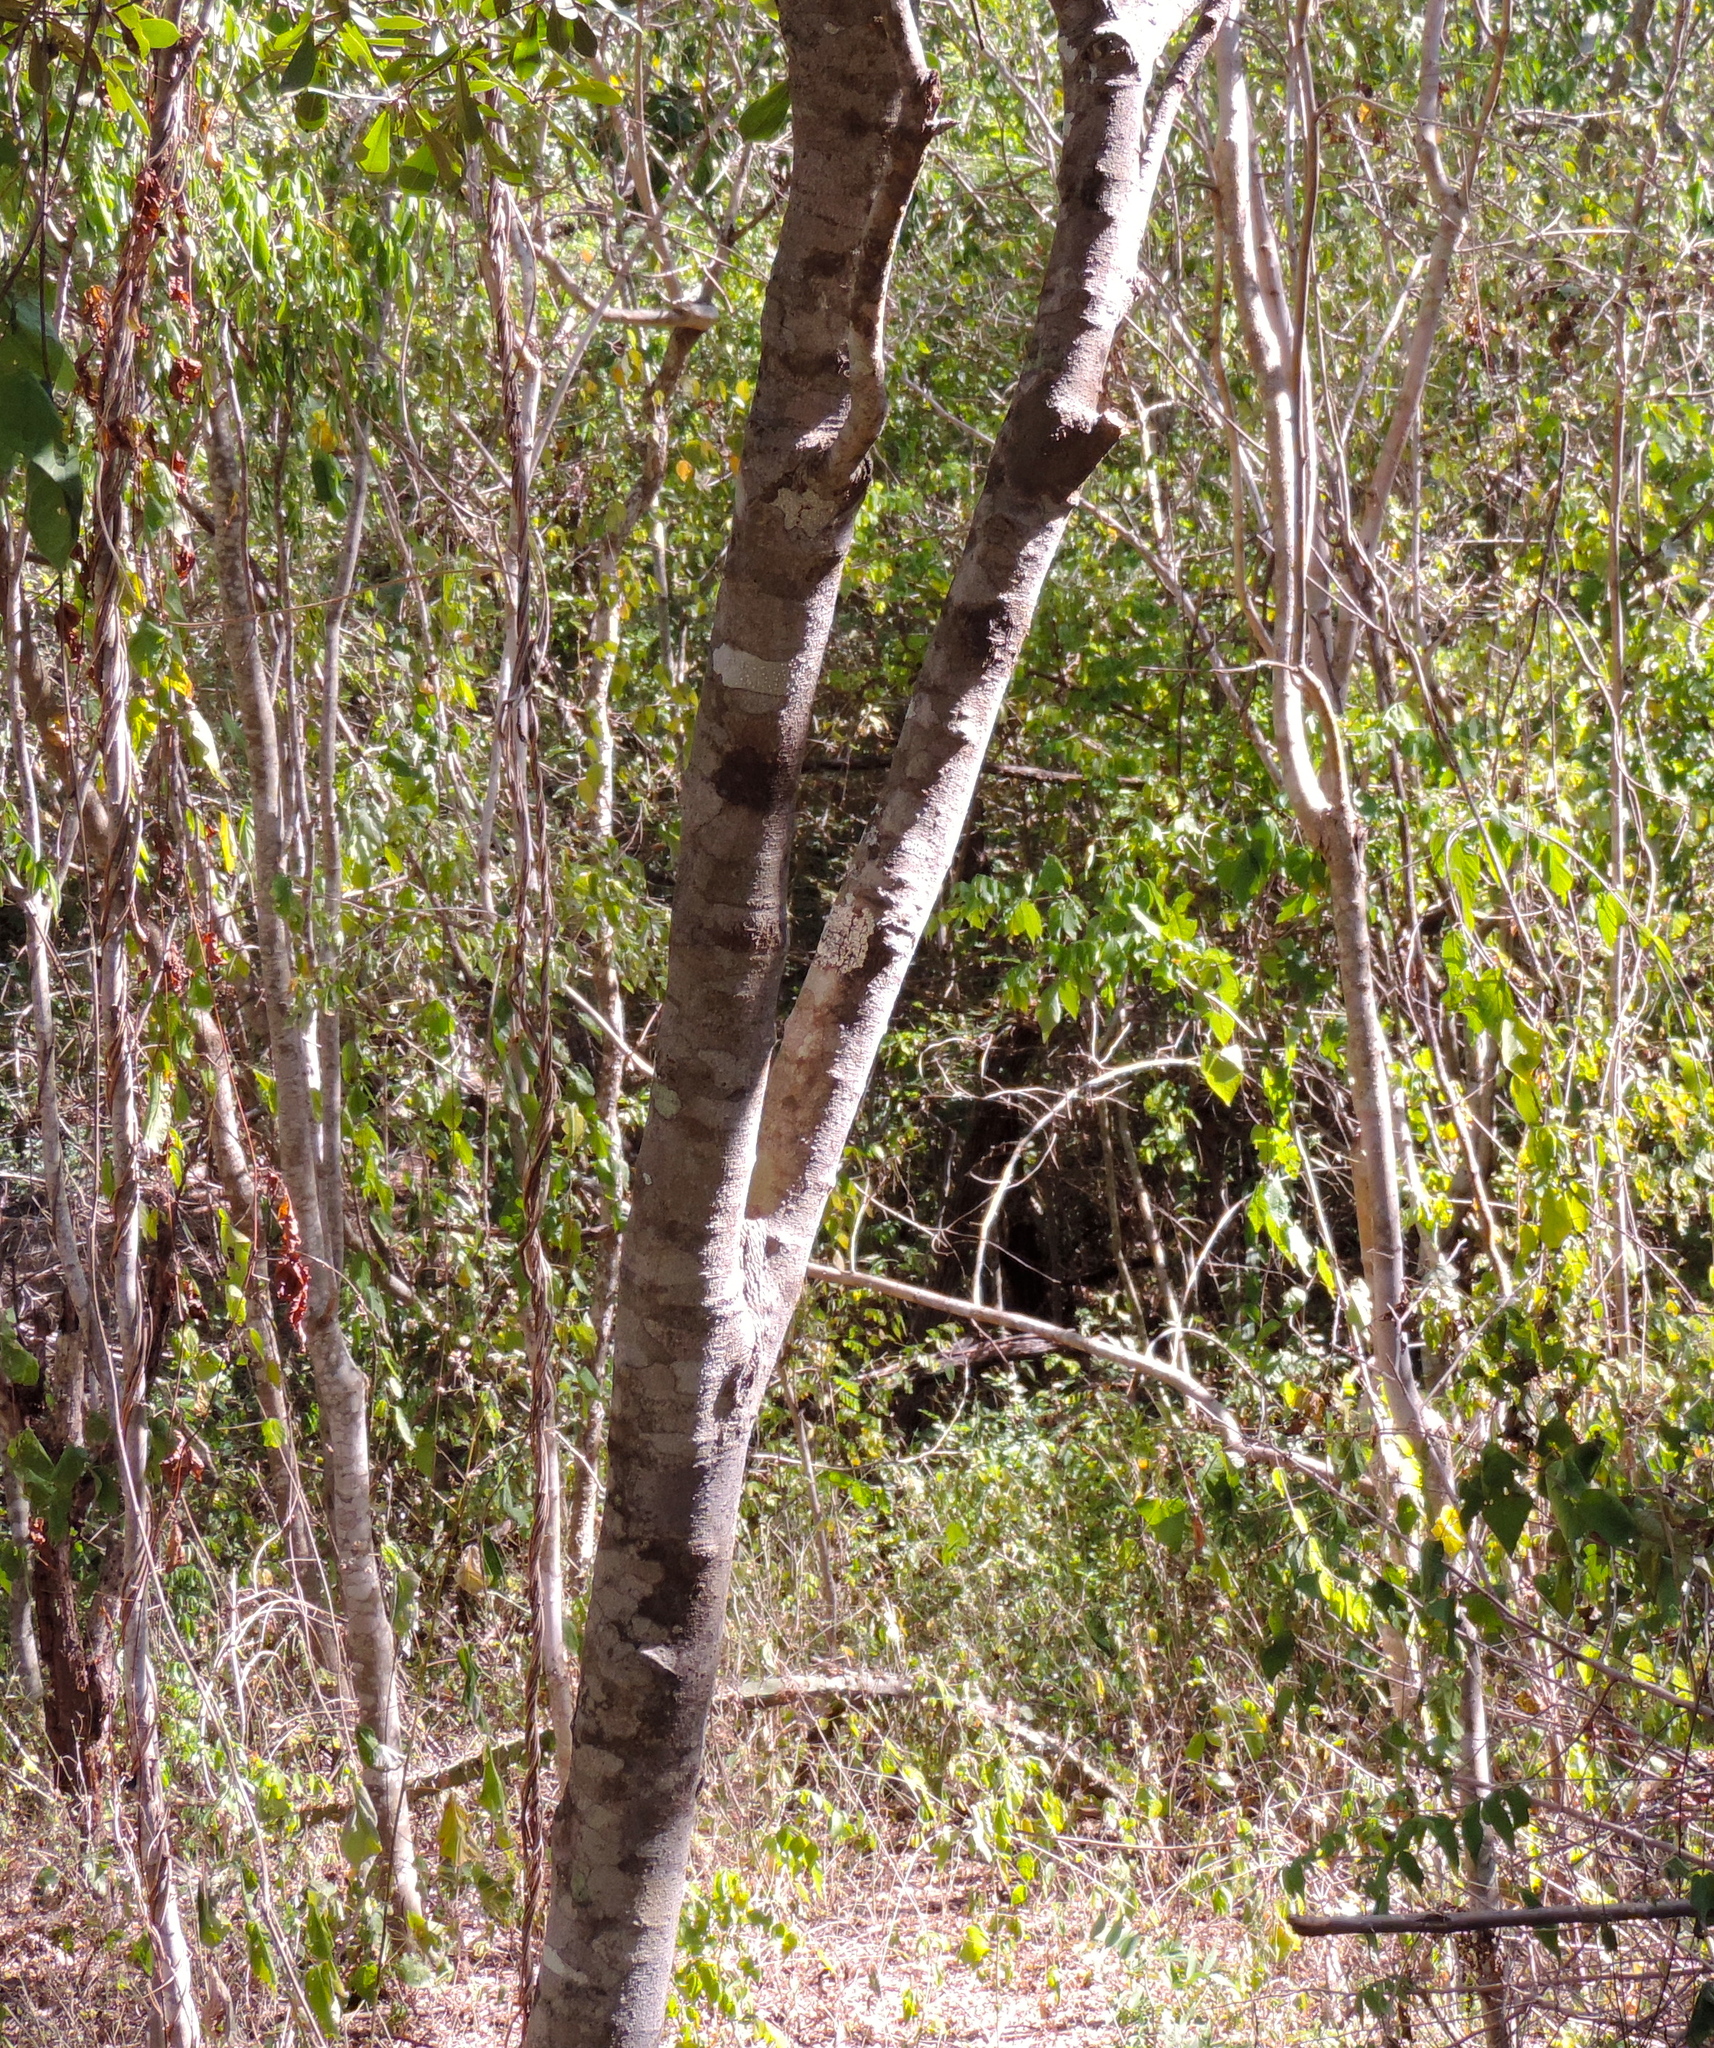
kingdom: Plantae
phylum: Tracheophyta
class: Magnoliopsida
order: Brassicales
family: Capparaceae
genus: Quadrella
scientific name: Quadrella indica
